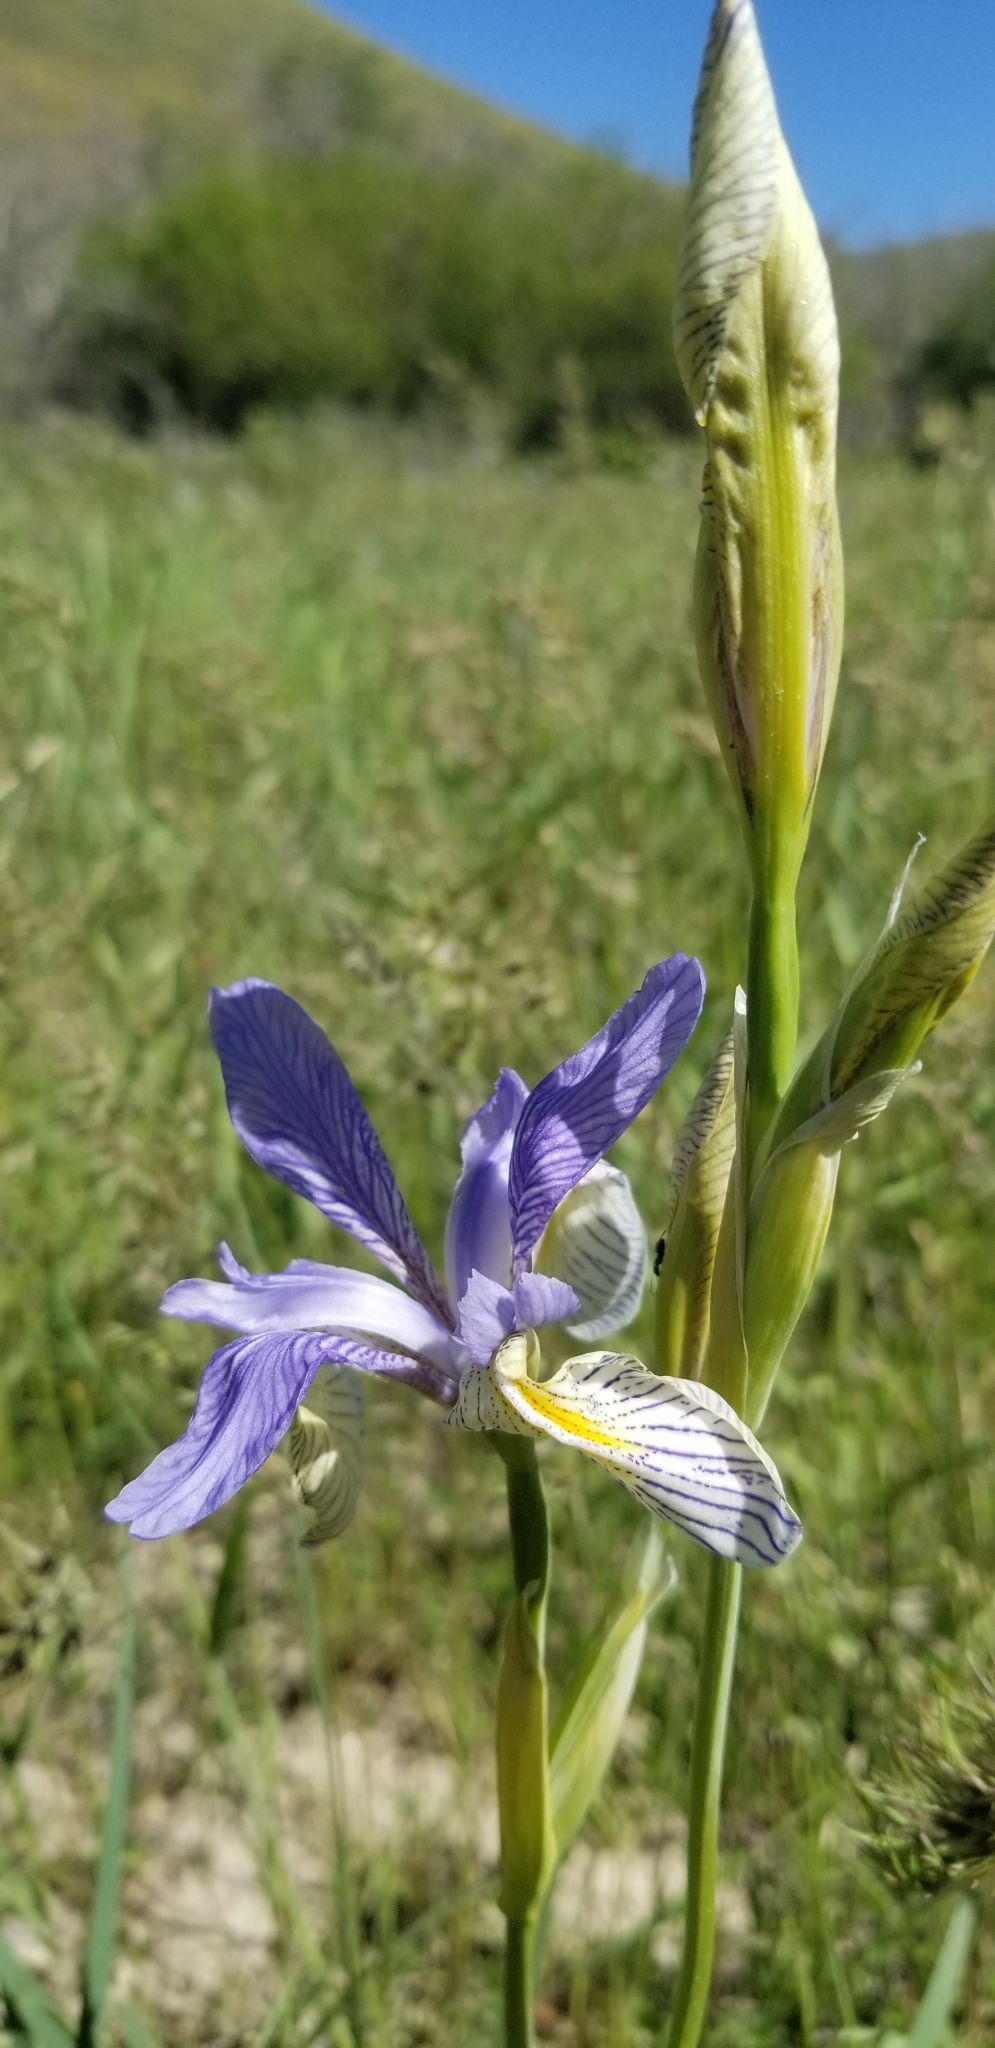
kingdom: Plantae
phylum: Tracheophyta
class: Liliopsida
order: Asparagales
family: Iridaceae
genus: Iris
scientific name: Iris missouriensis
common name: Rocky mountain iris
